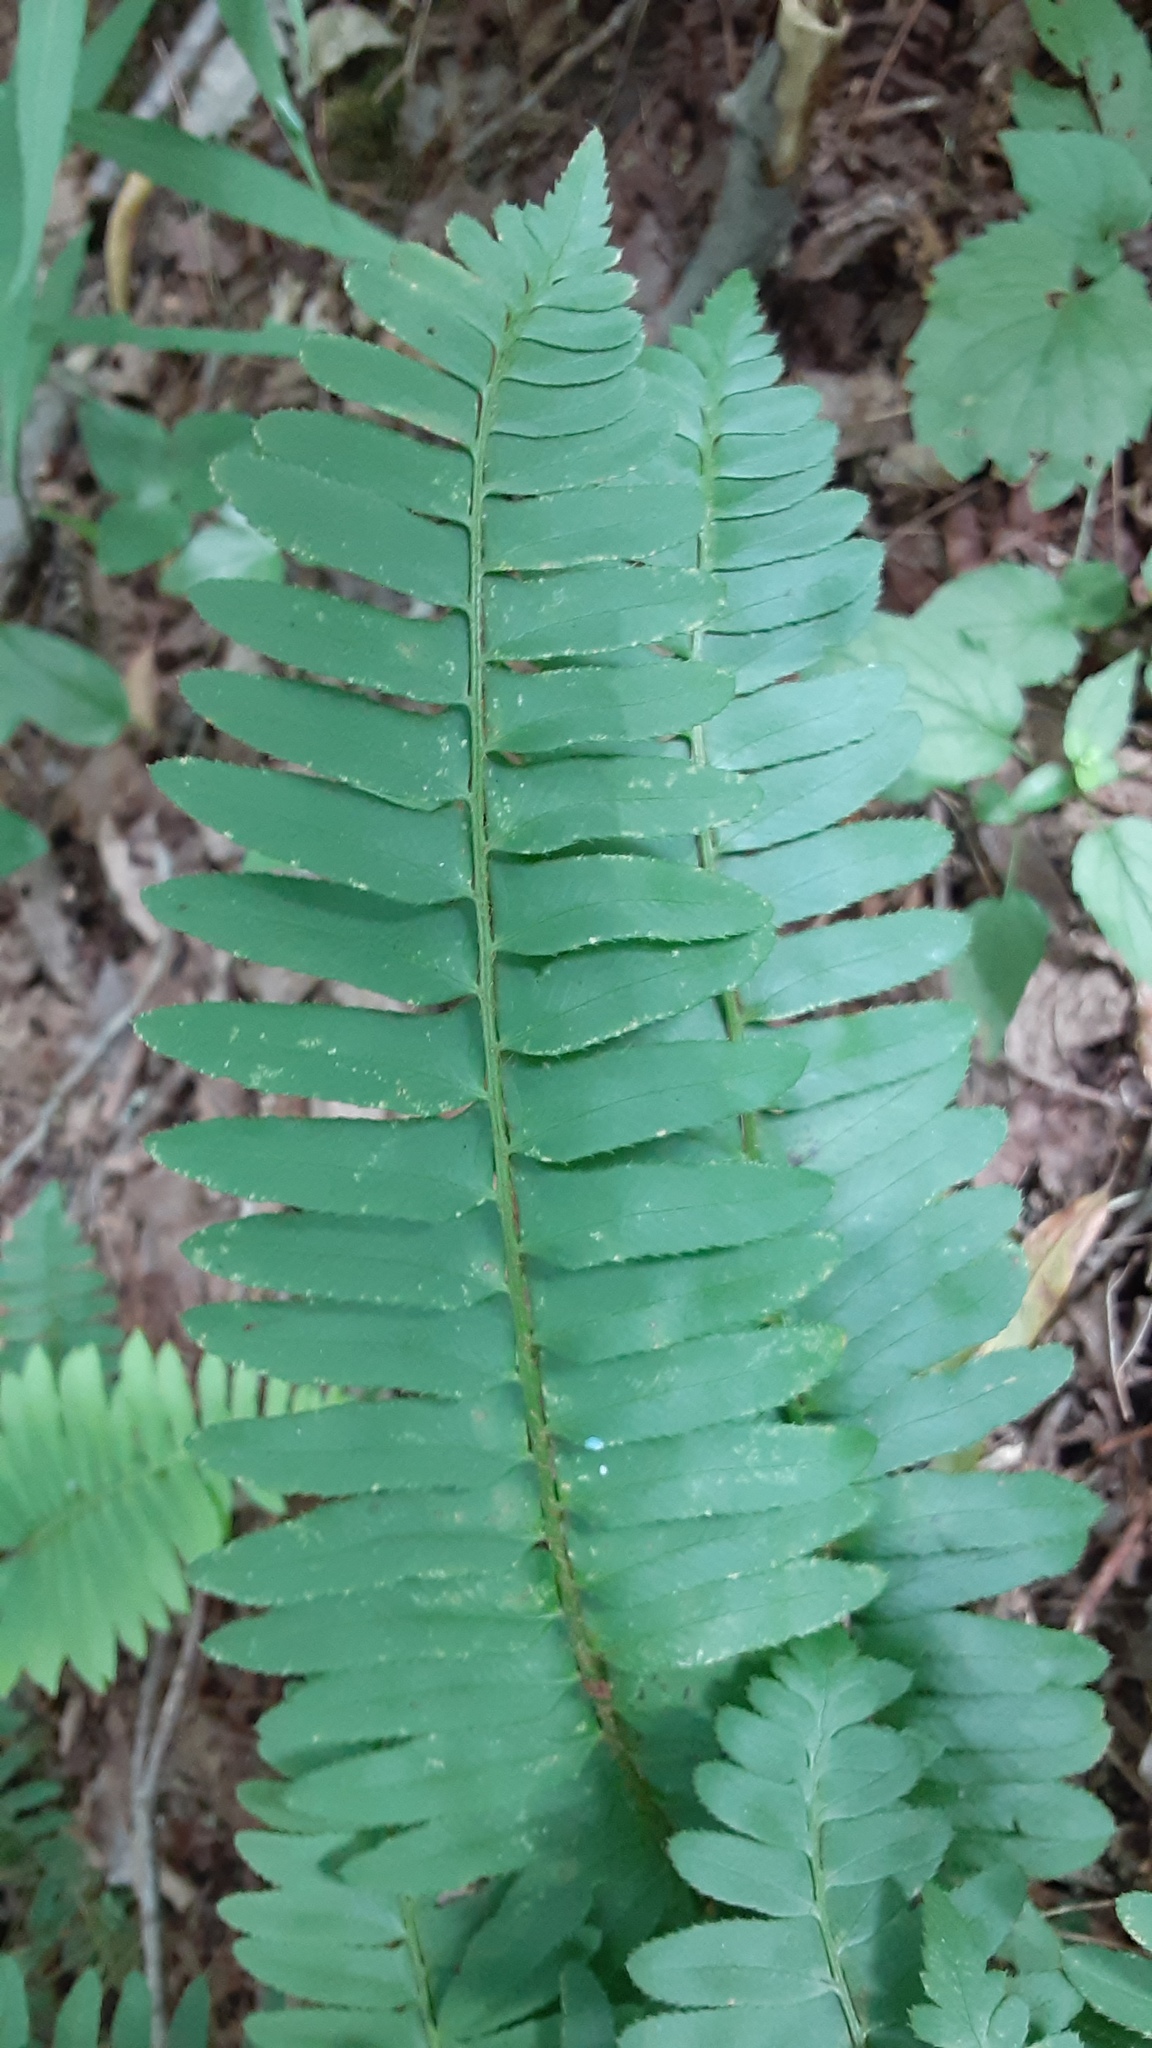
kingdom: Plantae
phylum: Tracheophyta
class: Polypodiopsida
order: Polypodiales
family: Dryopteridaceae
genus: Polystichum
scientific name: Polystichum acrostichoides
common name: Christmas fern
